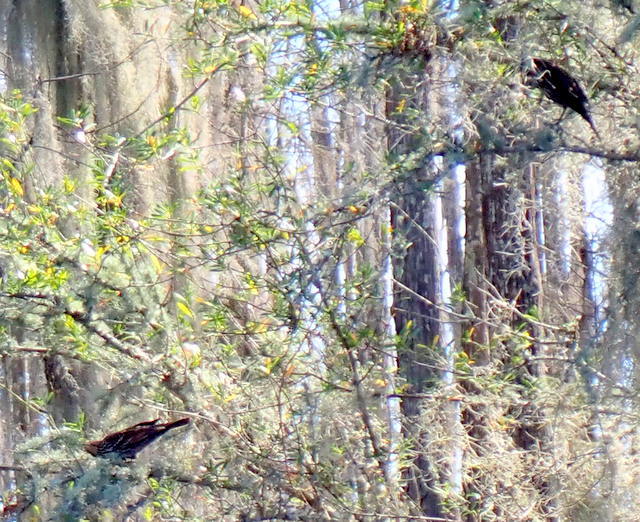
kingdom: Animalia
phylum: Chordata
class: Aves
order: Passeriformes
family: Icteridae
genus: Agelaius
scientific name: Agelaius phoeniceus
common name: Red-winged blackbird
